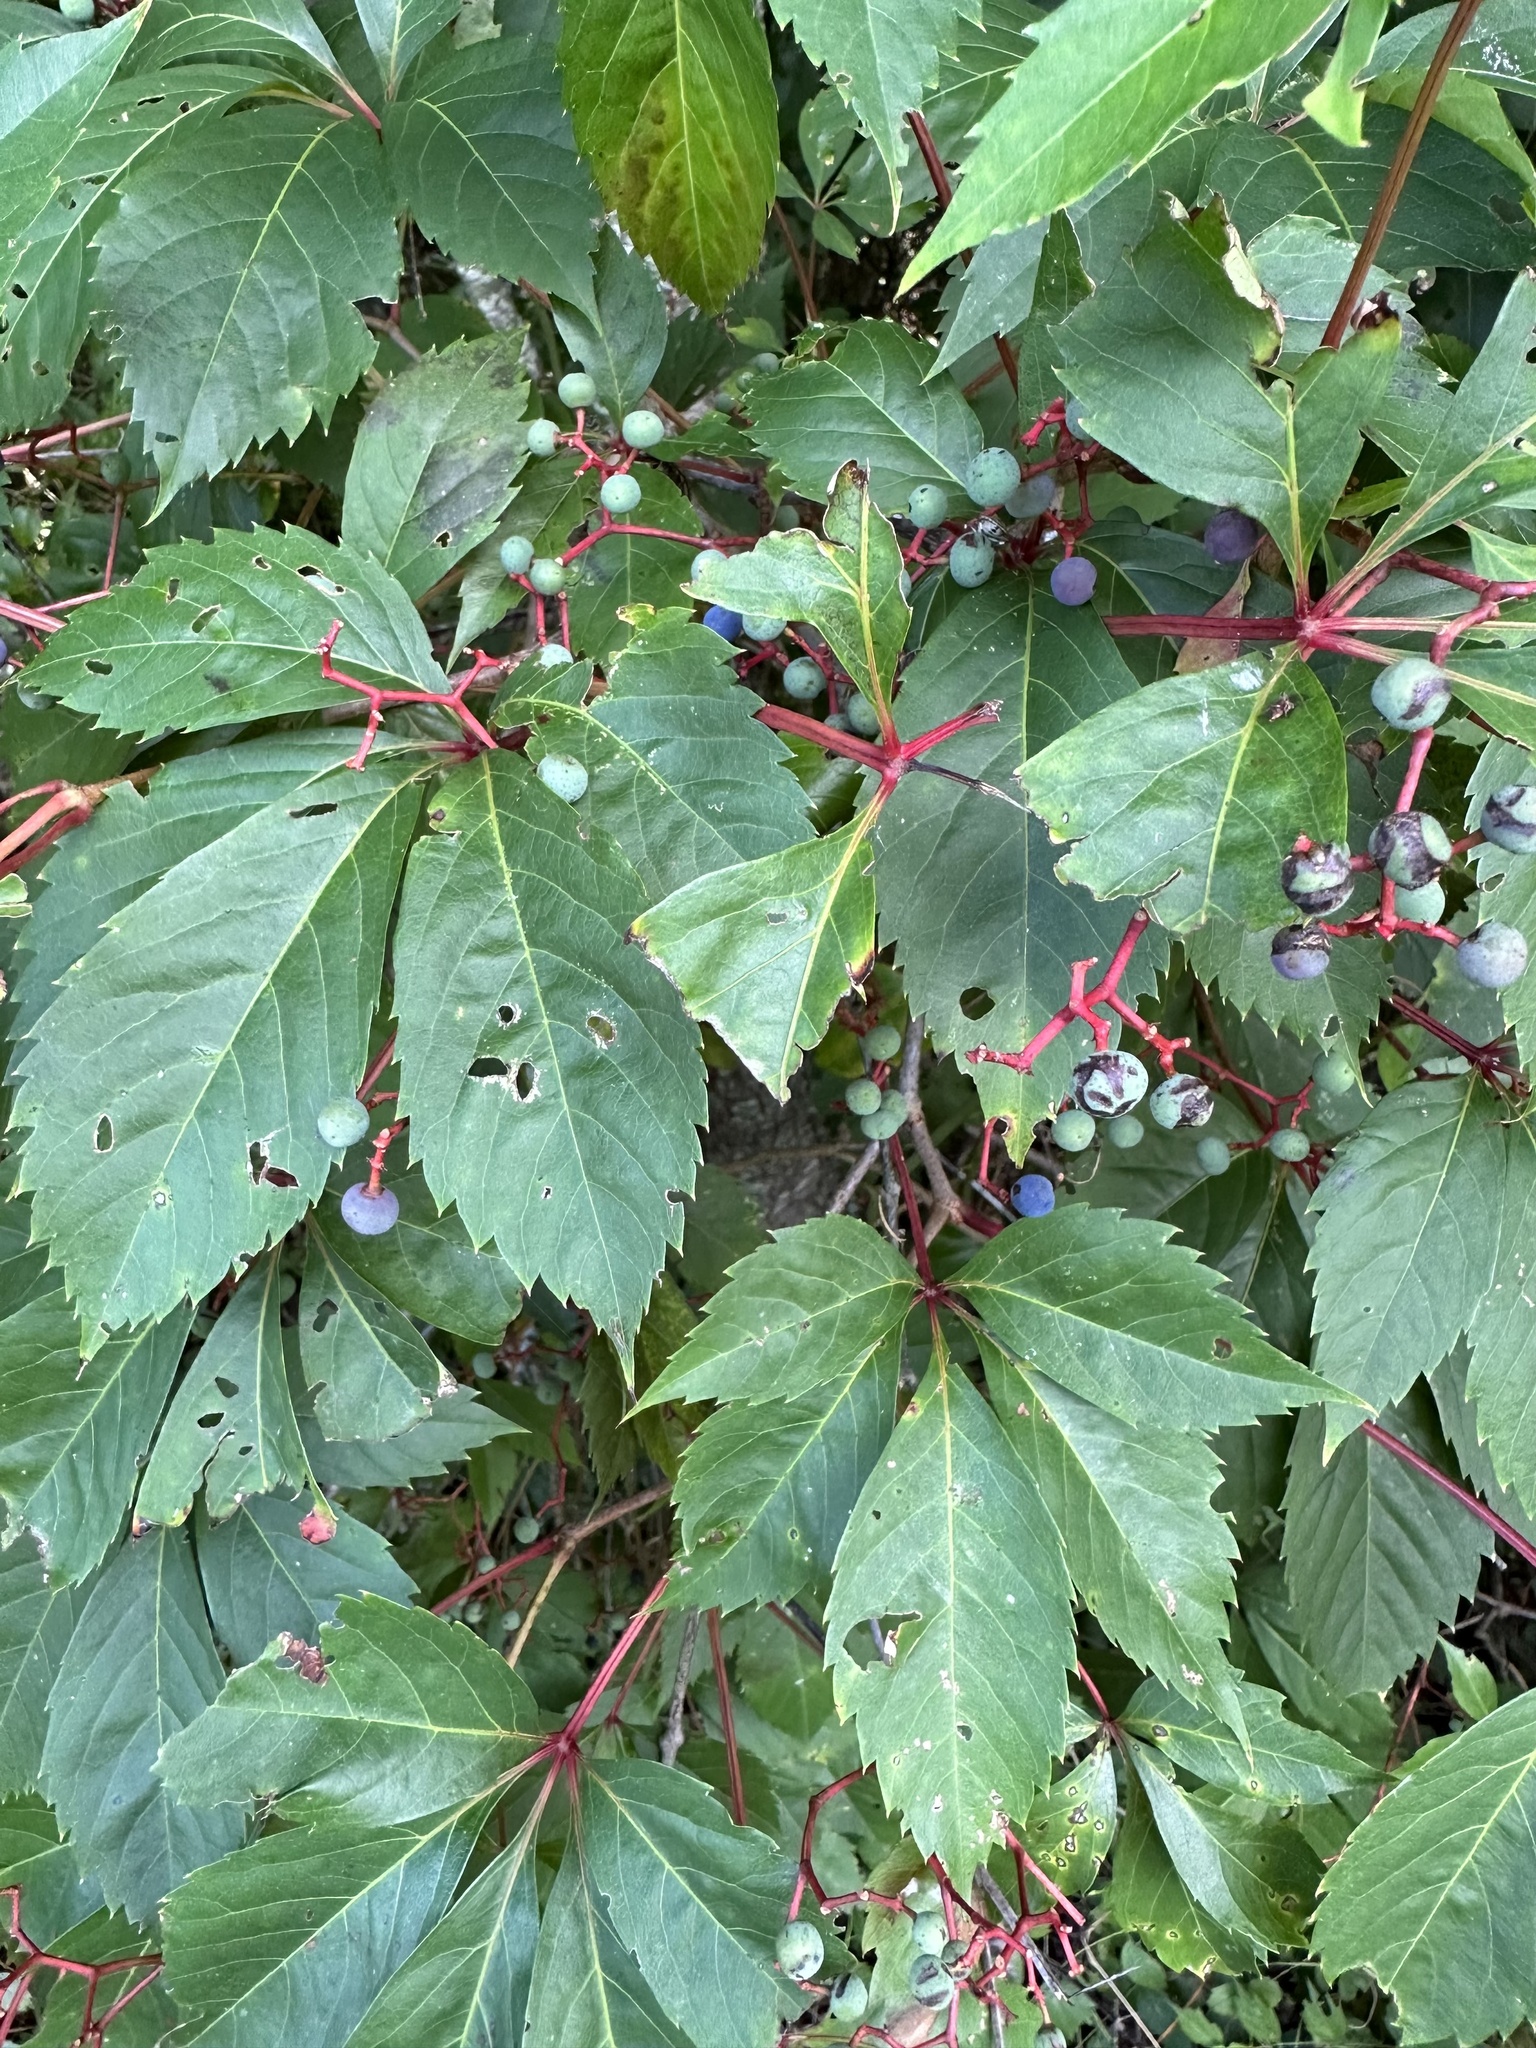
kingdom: Plantae
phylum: Tracheophyta
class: Magnoliopsida
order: Vitales
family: Vitaceae
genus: Parthenocissus
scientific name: Parthenocissus quinquefolia
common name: Virginia-creeper
